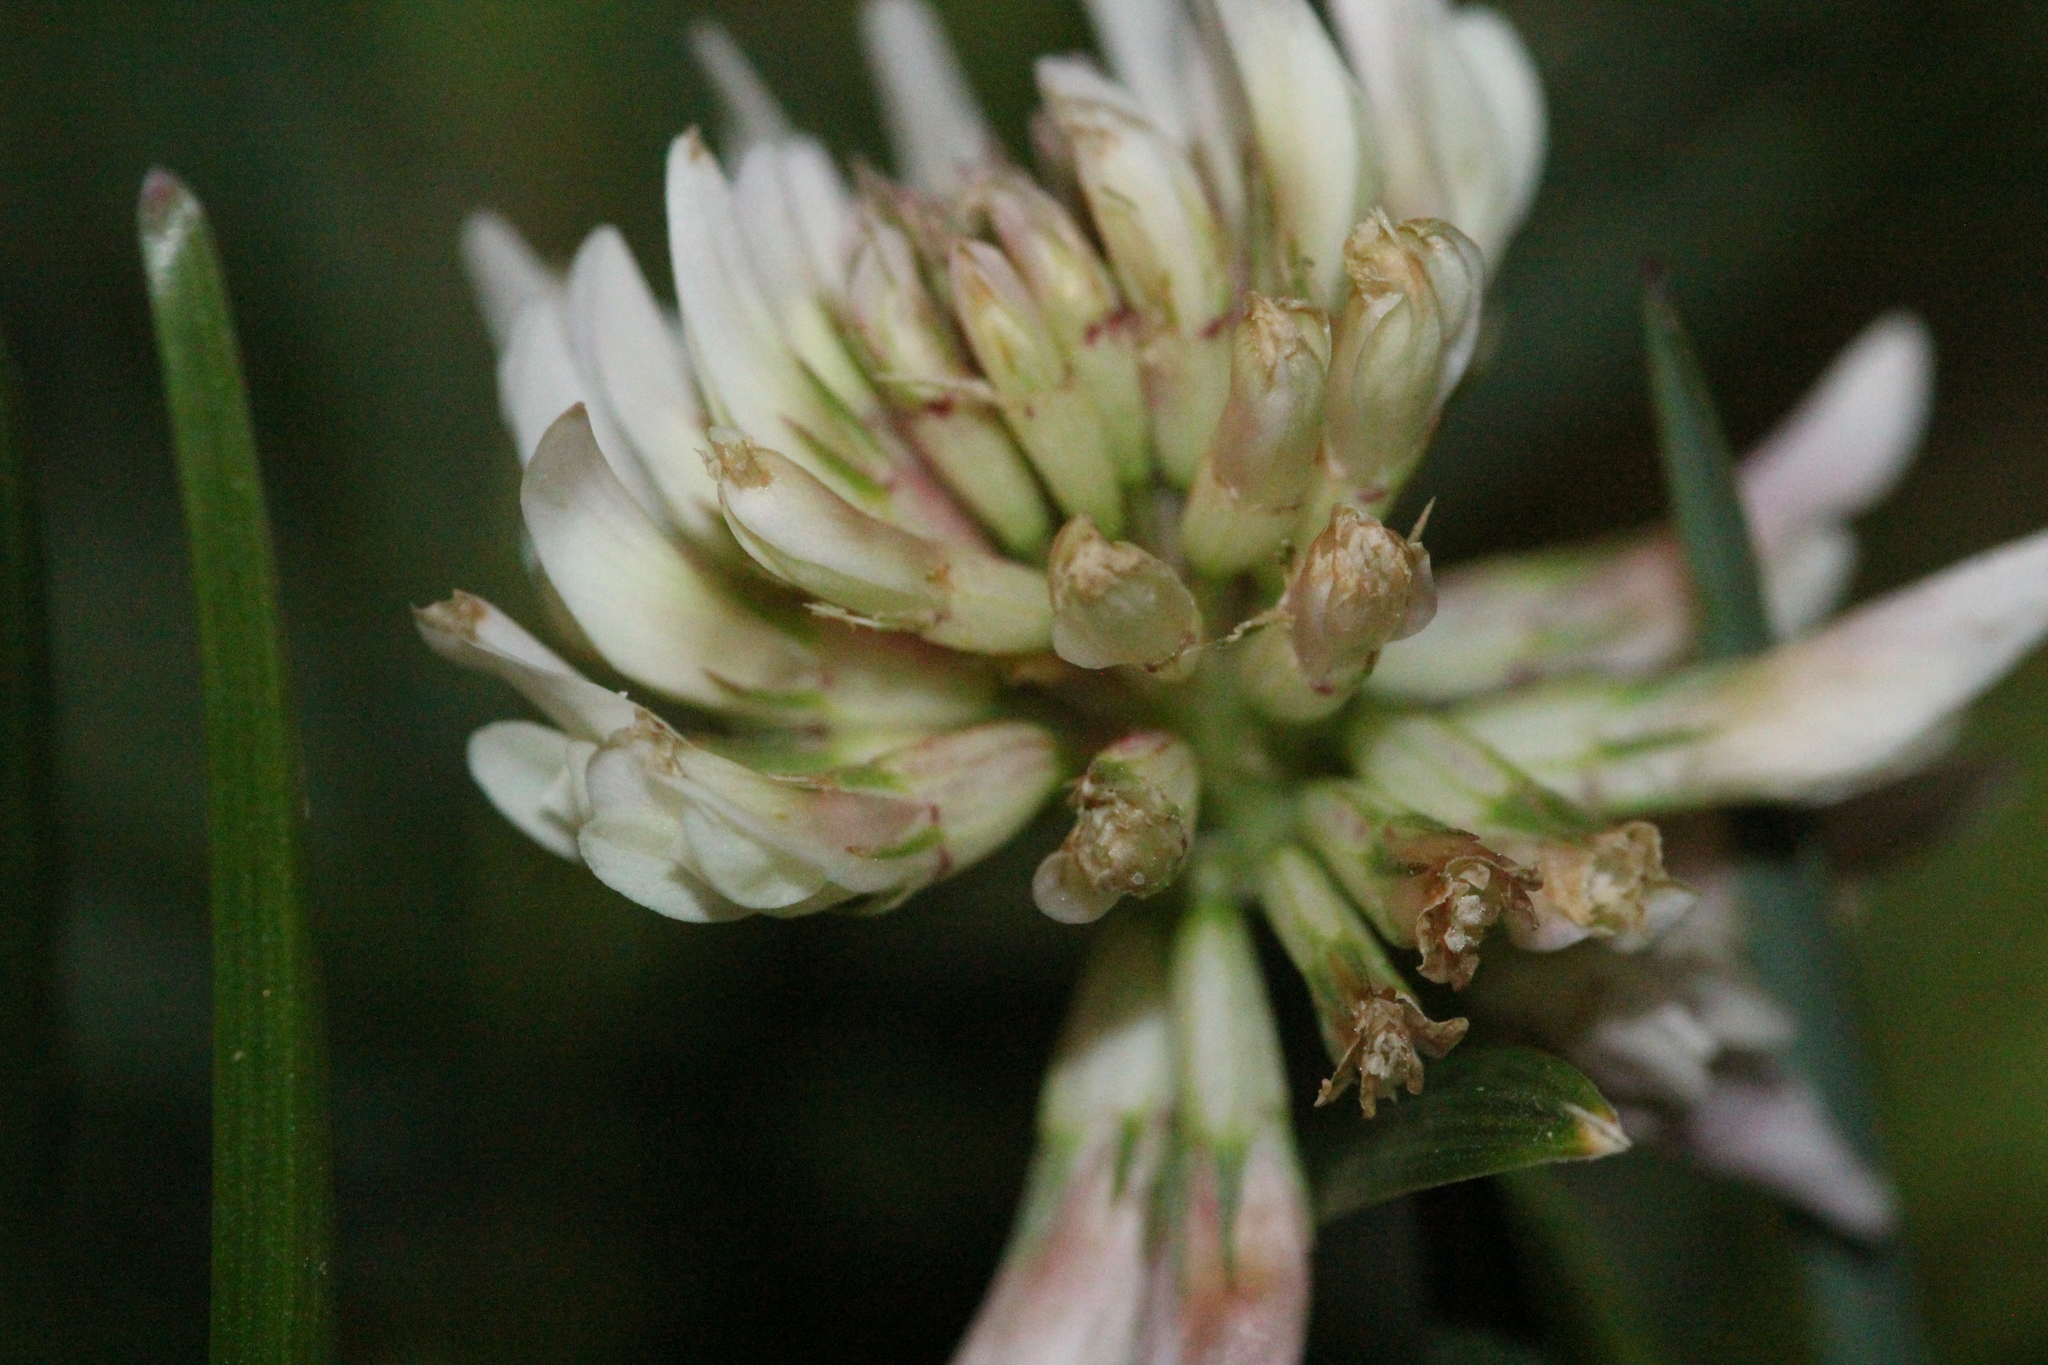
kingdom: Plantae
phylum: Tracheophyta
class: Magnoliopsida
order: Fabales
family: Fabaceae
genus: Trifolium
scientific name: Trifolium repens
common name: White clover
